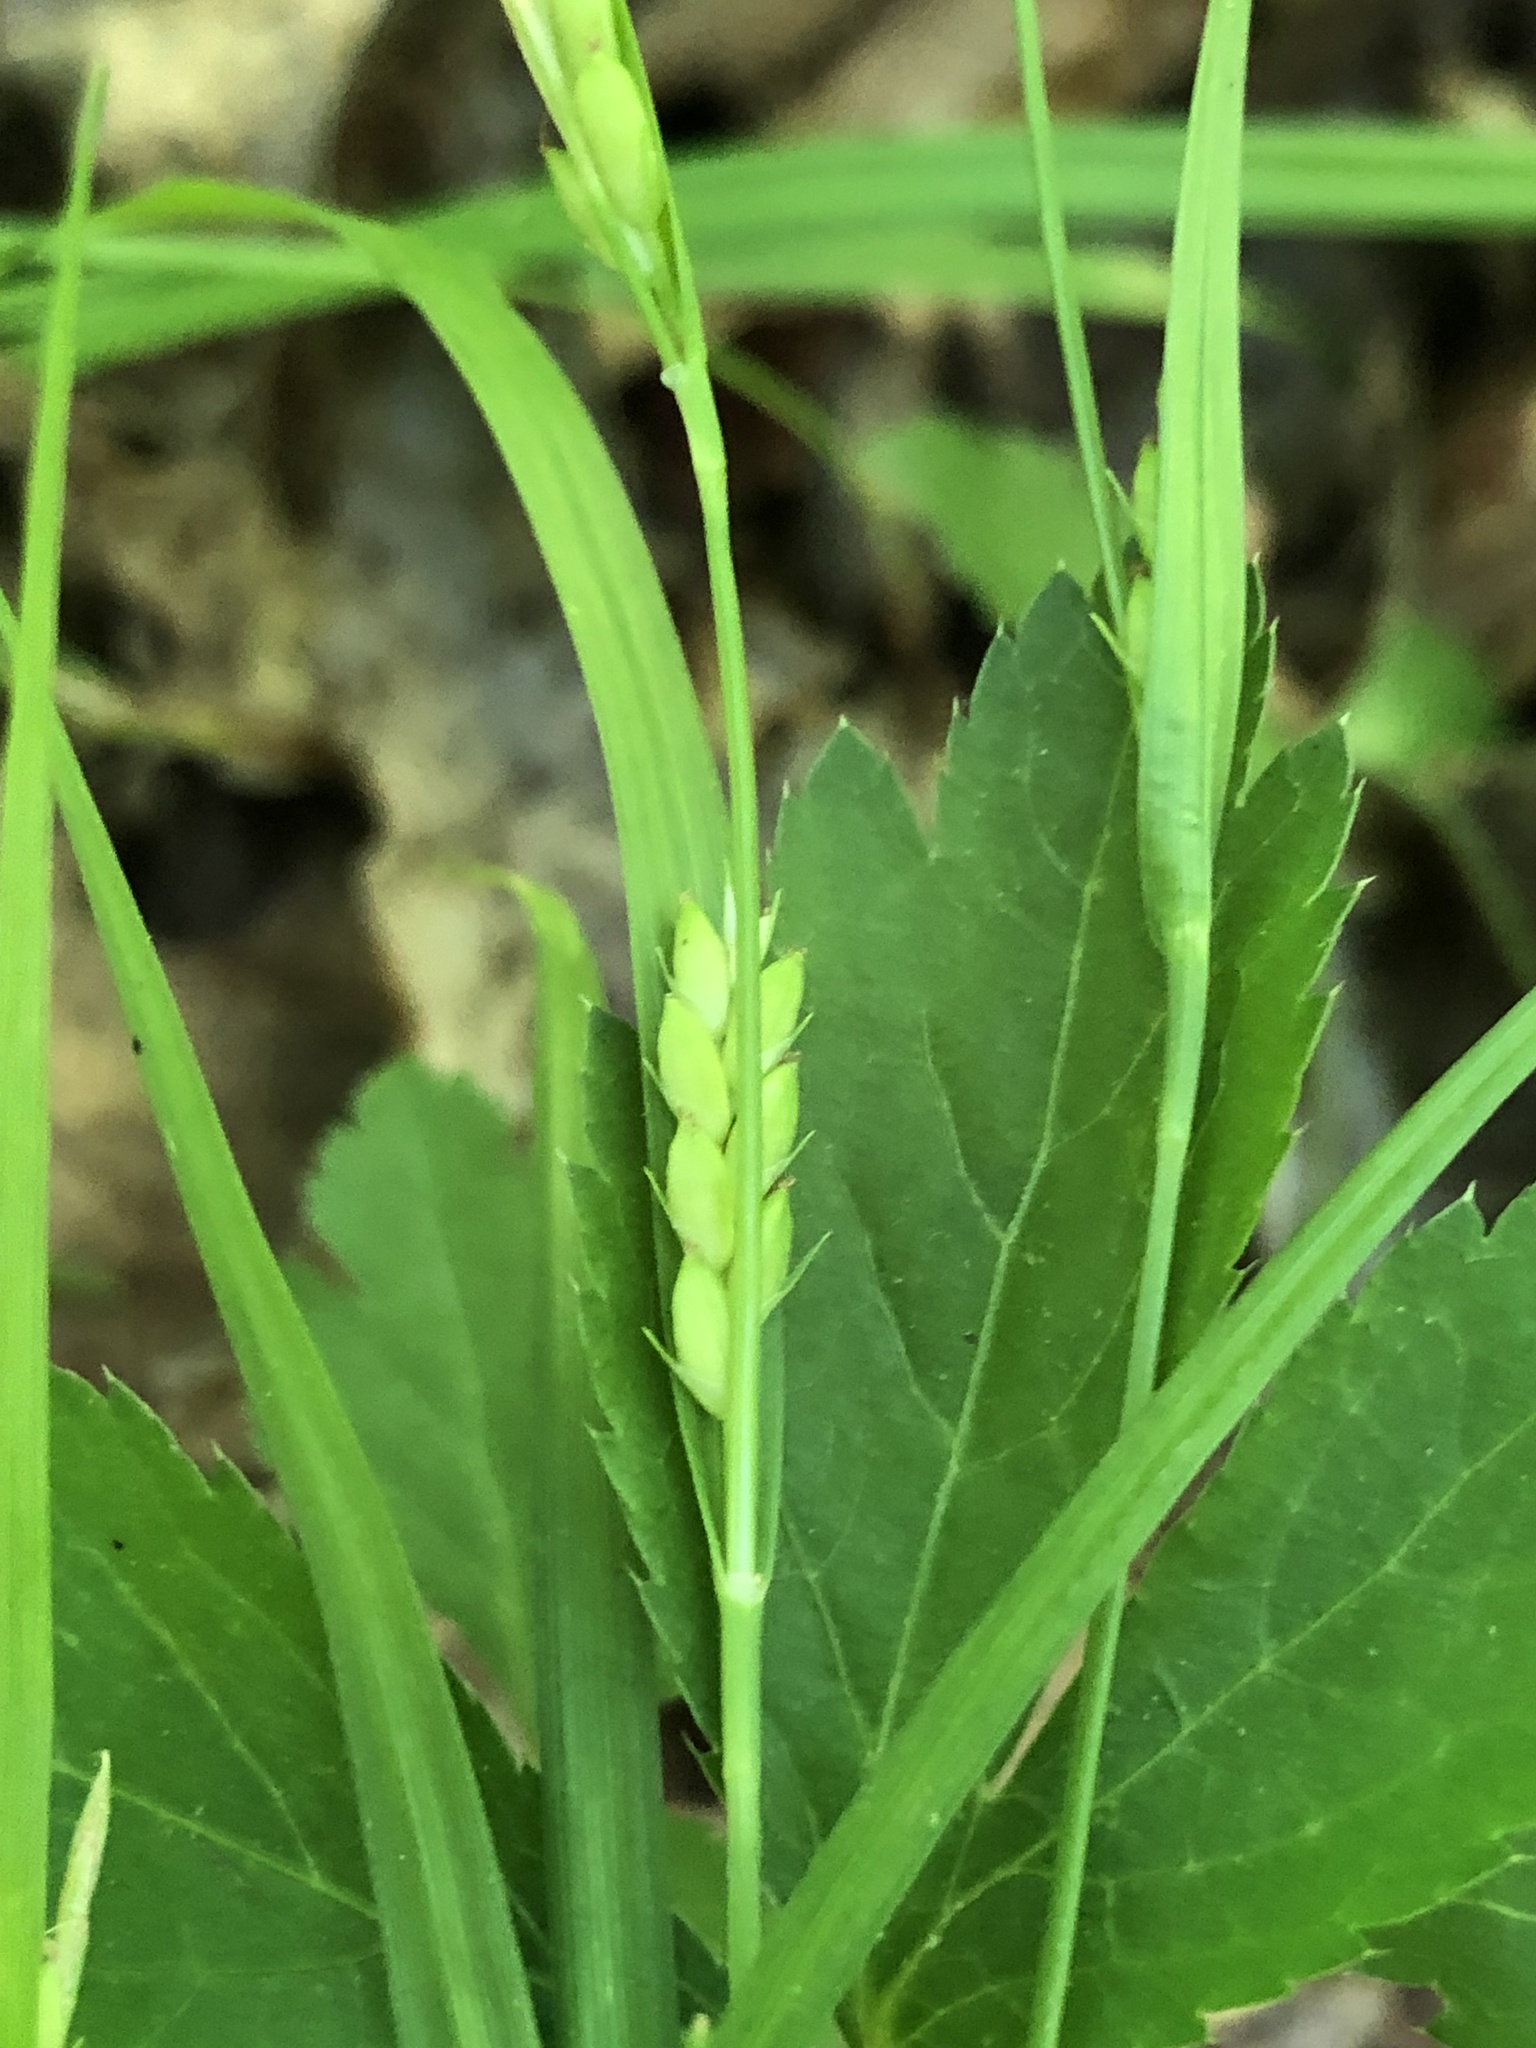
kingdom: Plantae
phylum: Tracheophyta
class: Liliopsida
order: Poales
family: Cyperaceae
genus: Carex
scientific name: Carex planispicata
